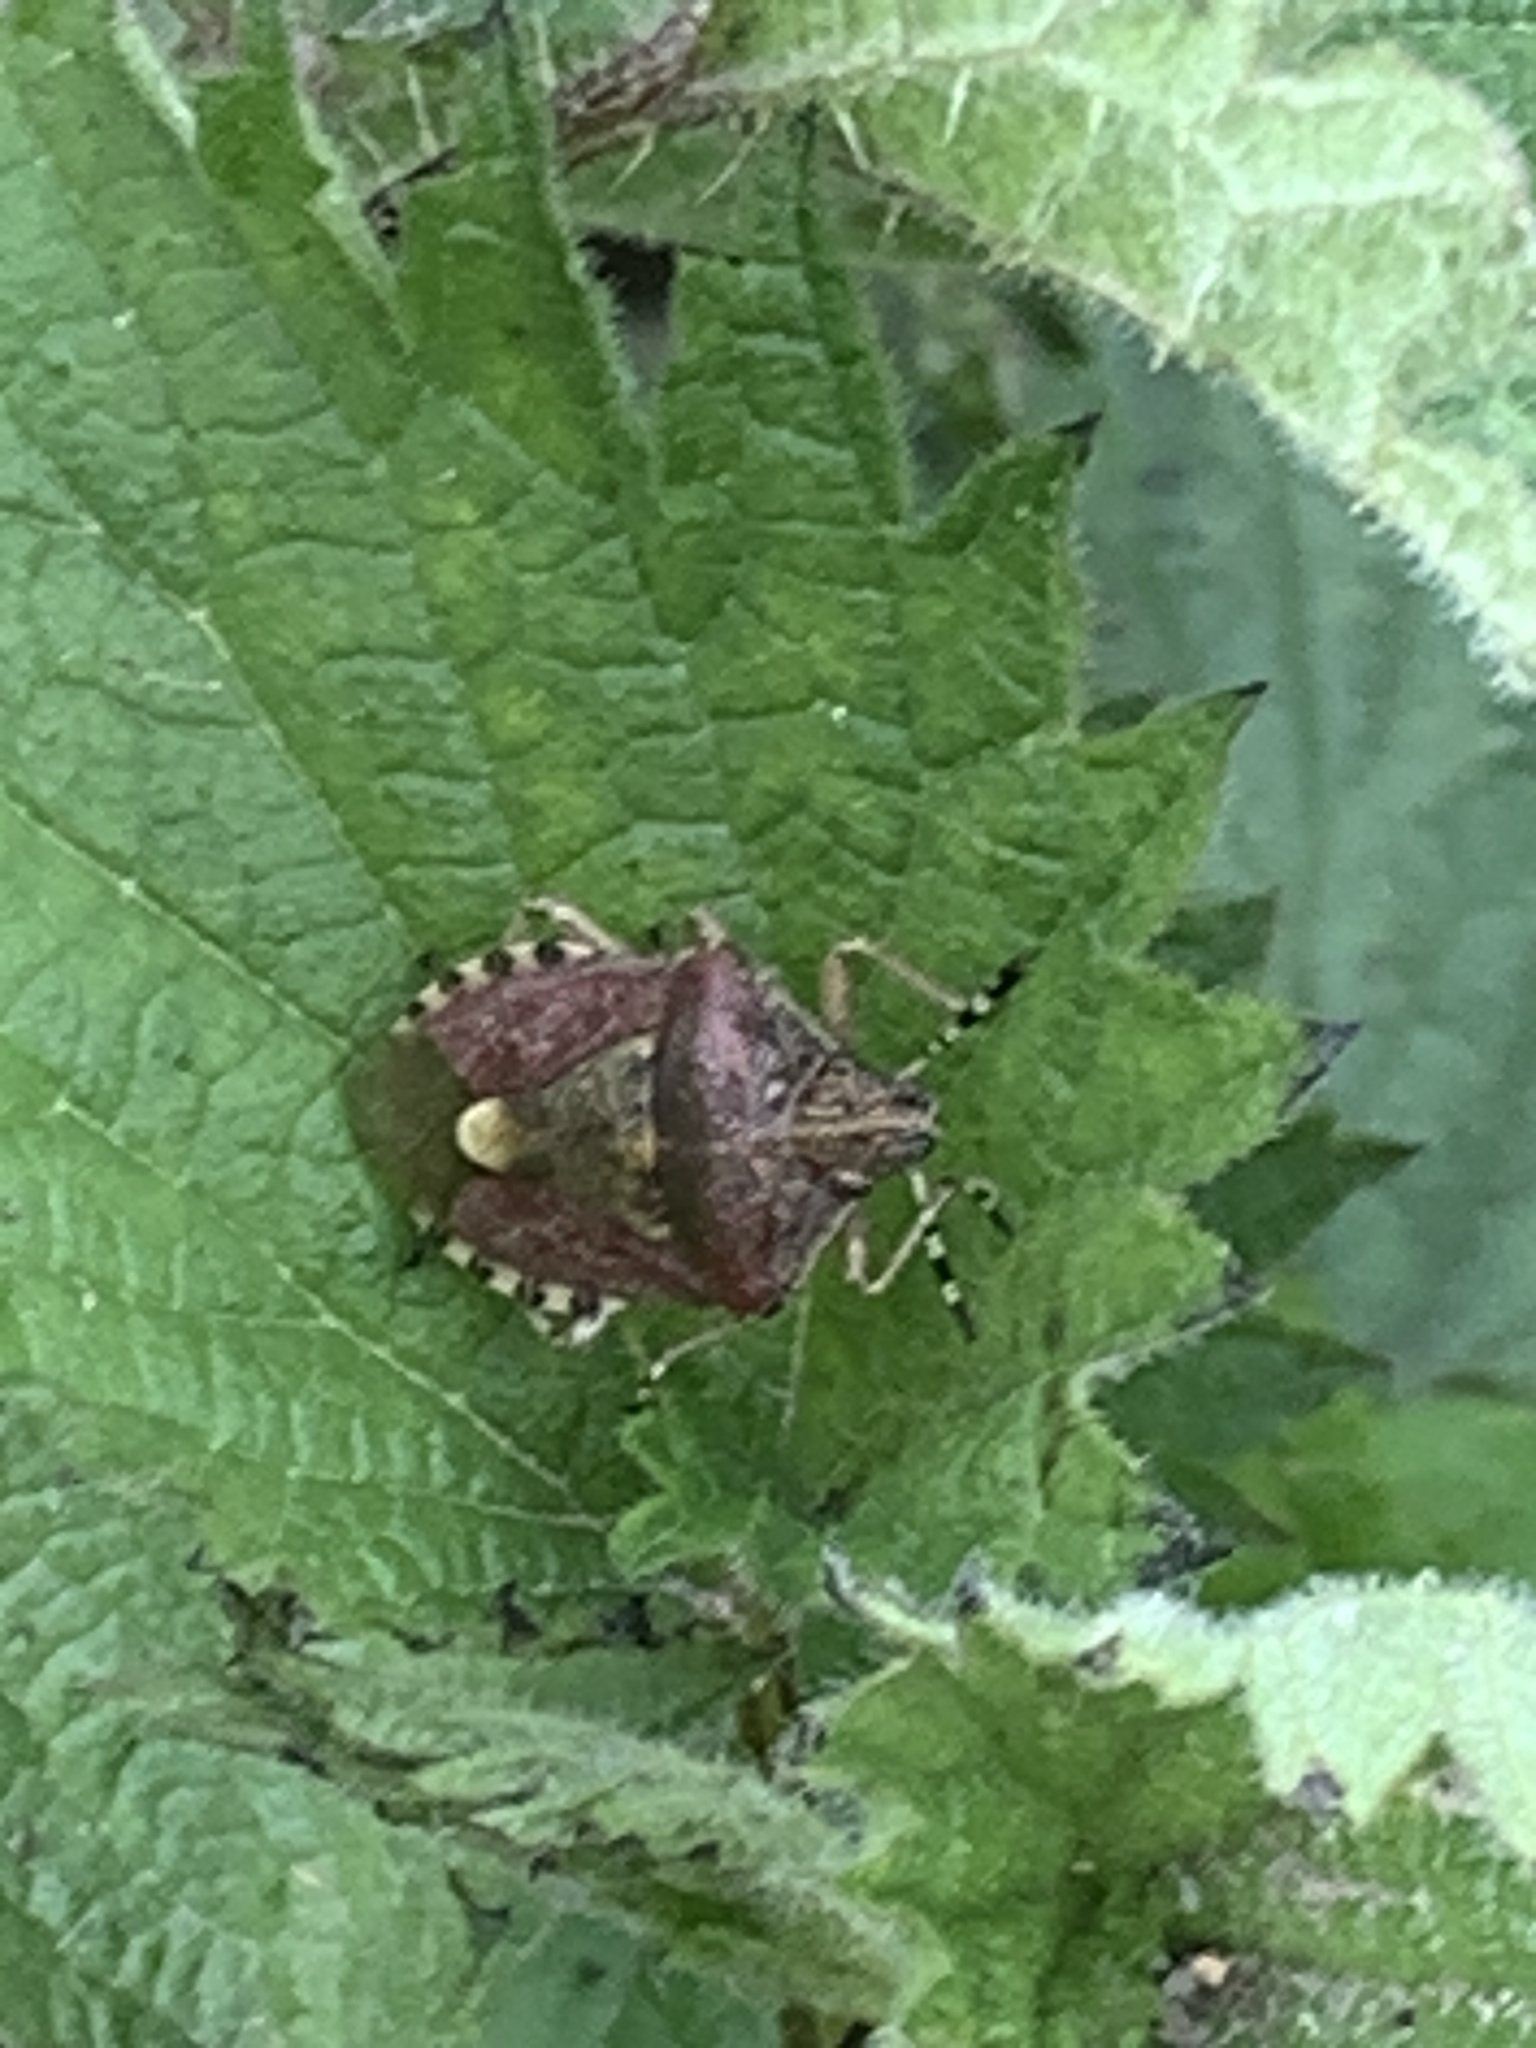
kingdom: Animalia
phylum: Arthropoda
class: Insecta
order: Hemiptera
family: Pentatomidae
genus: Dolycoris
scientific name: Dolycoris baccarum
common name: Sloe bug
